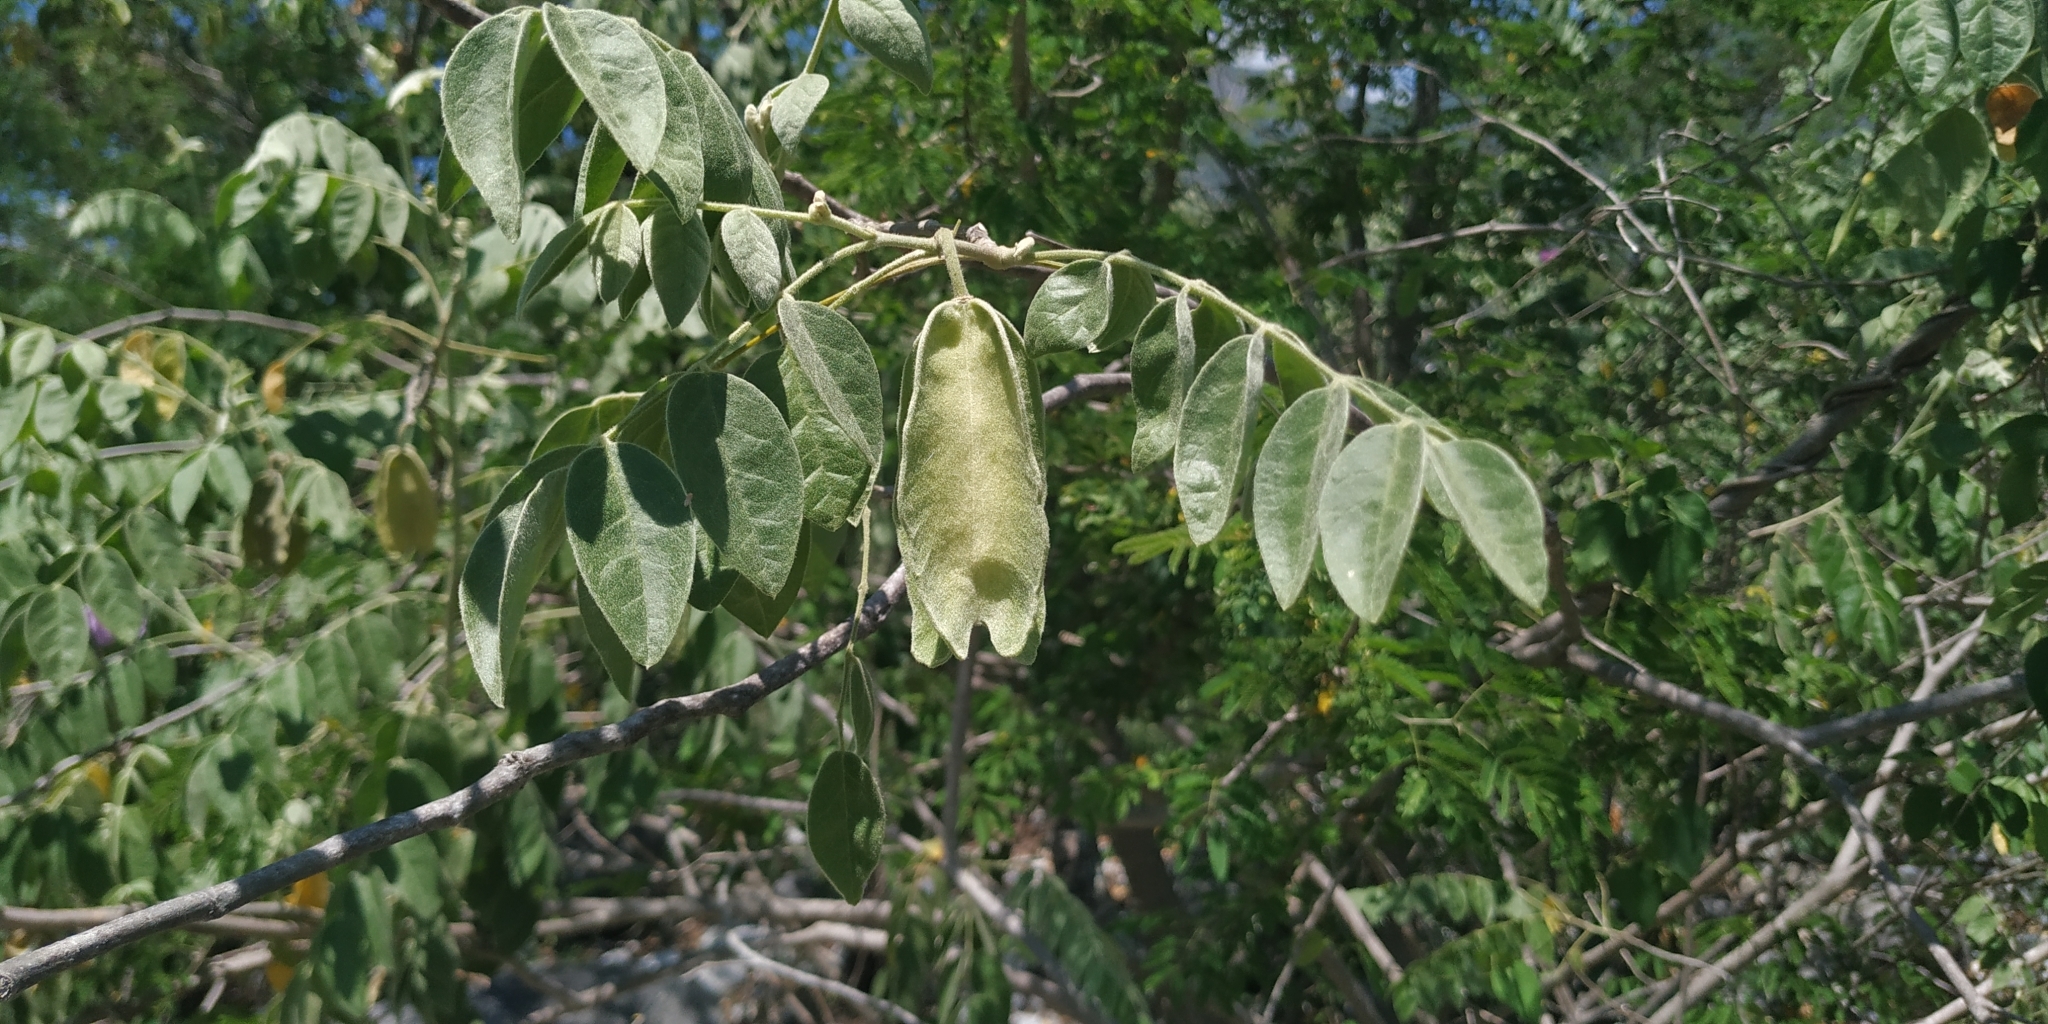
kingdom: Plantae
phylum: Tracheophyta
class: Magnoliopsida
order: Zygophyllales
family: Zygophyllaceae
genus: Morkillia
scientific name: Morkillia acuminata
